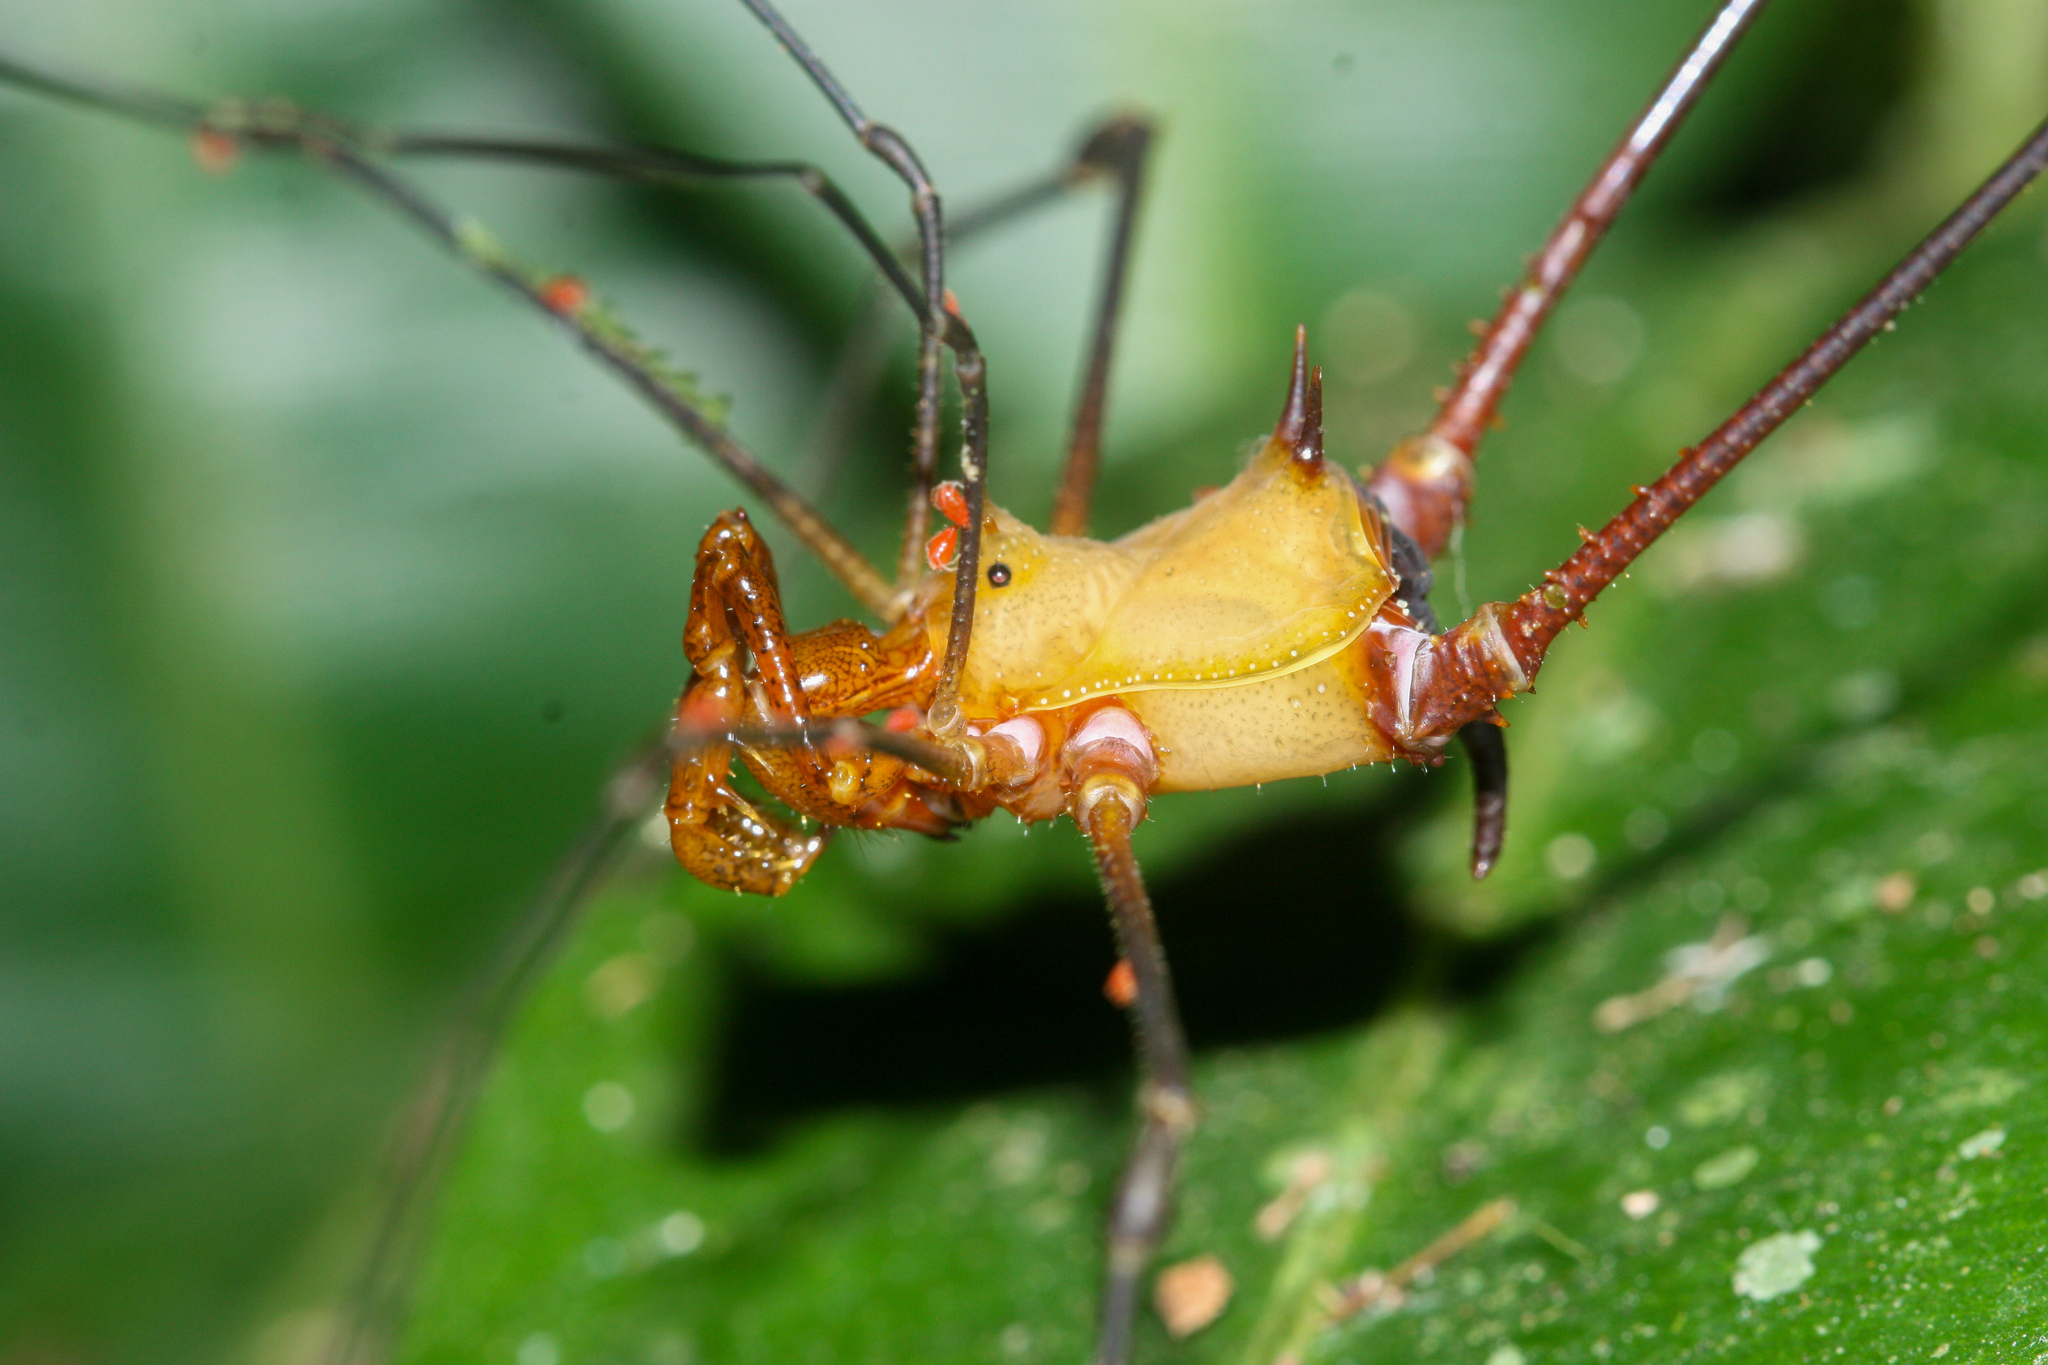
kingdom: Animalia
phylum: Arthropoda
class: Arachnida
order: Opiliones
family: Cranaidae
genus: Ventrivomer
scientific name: Ventrivomer ancyrophorus
